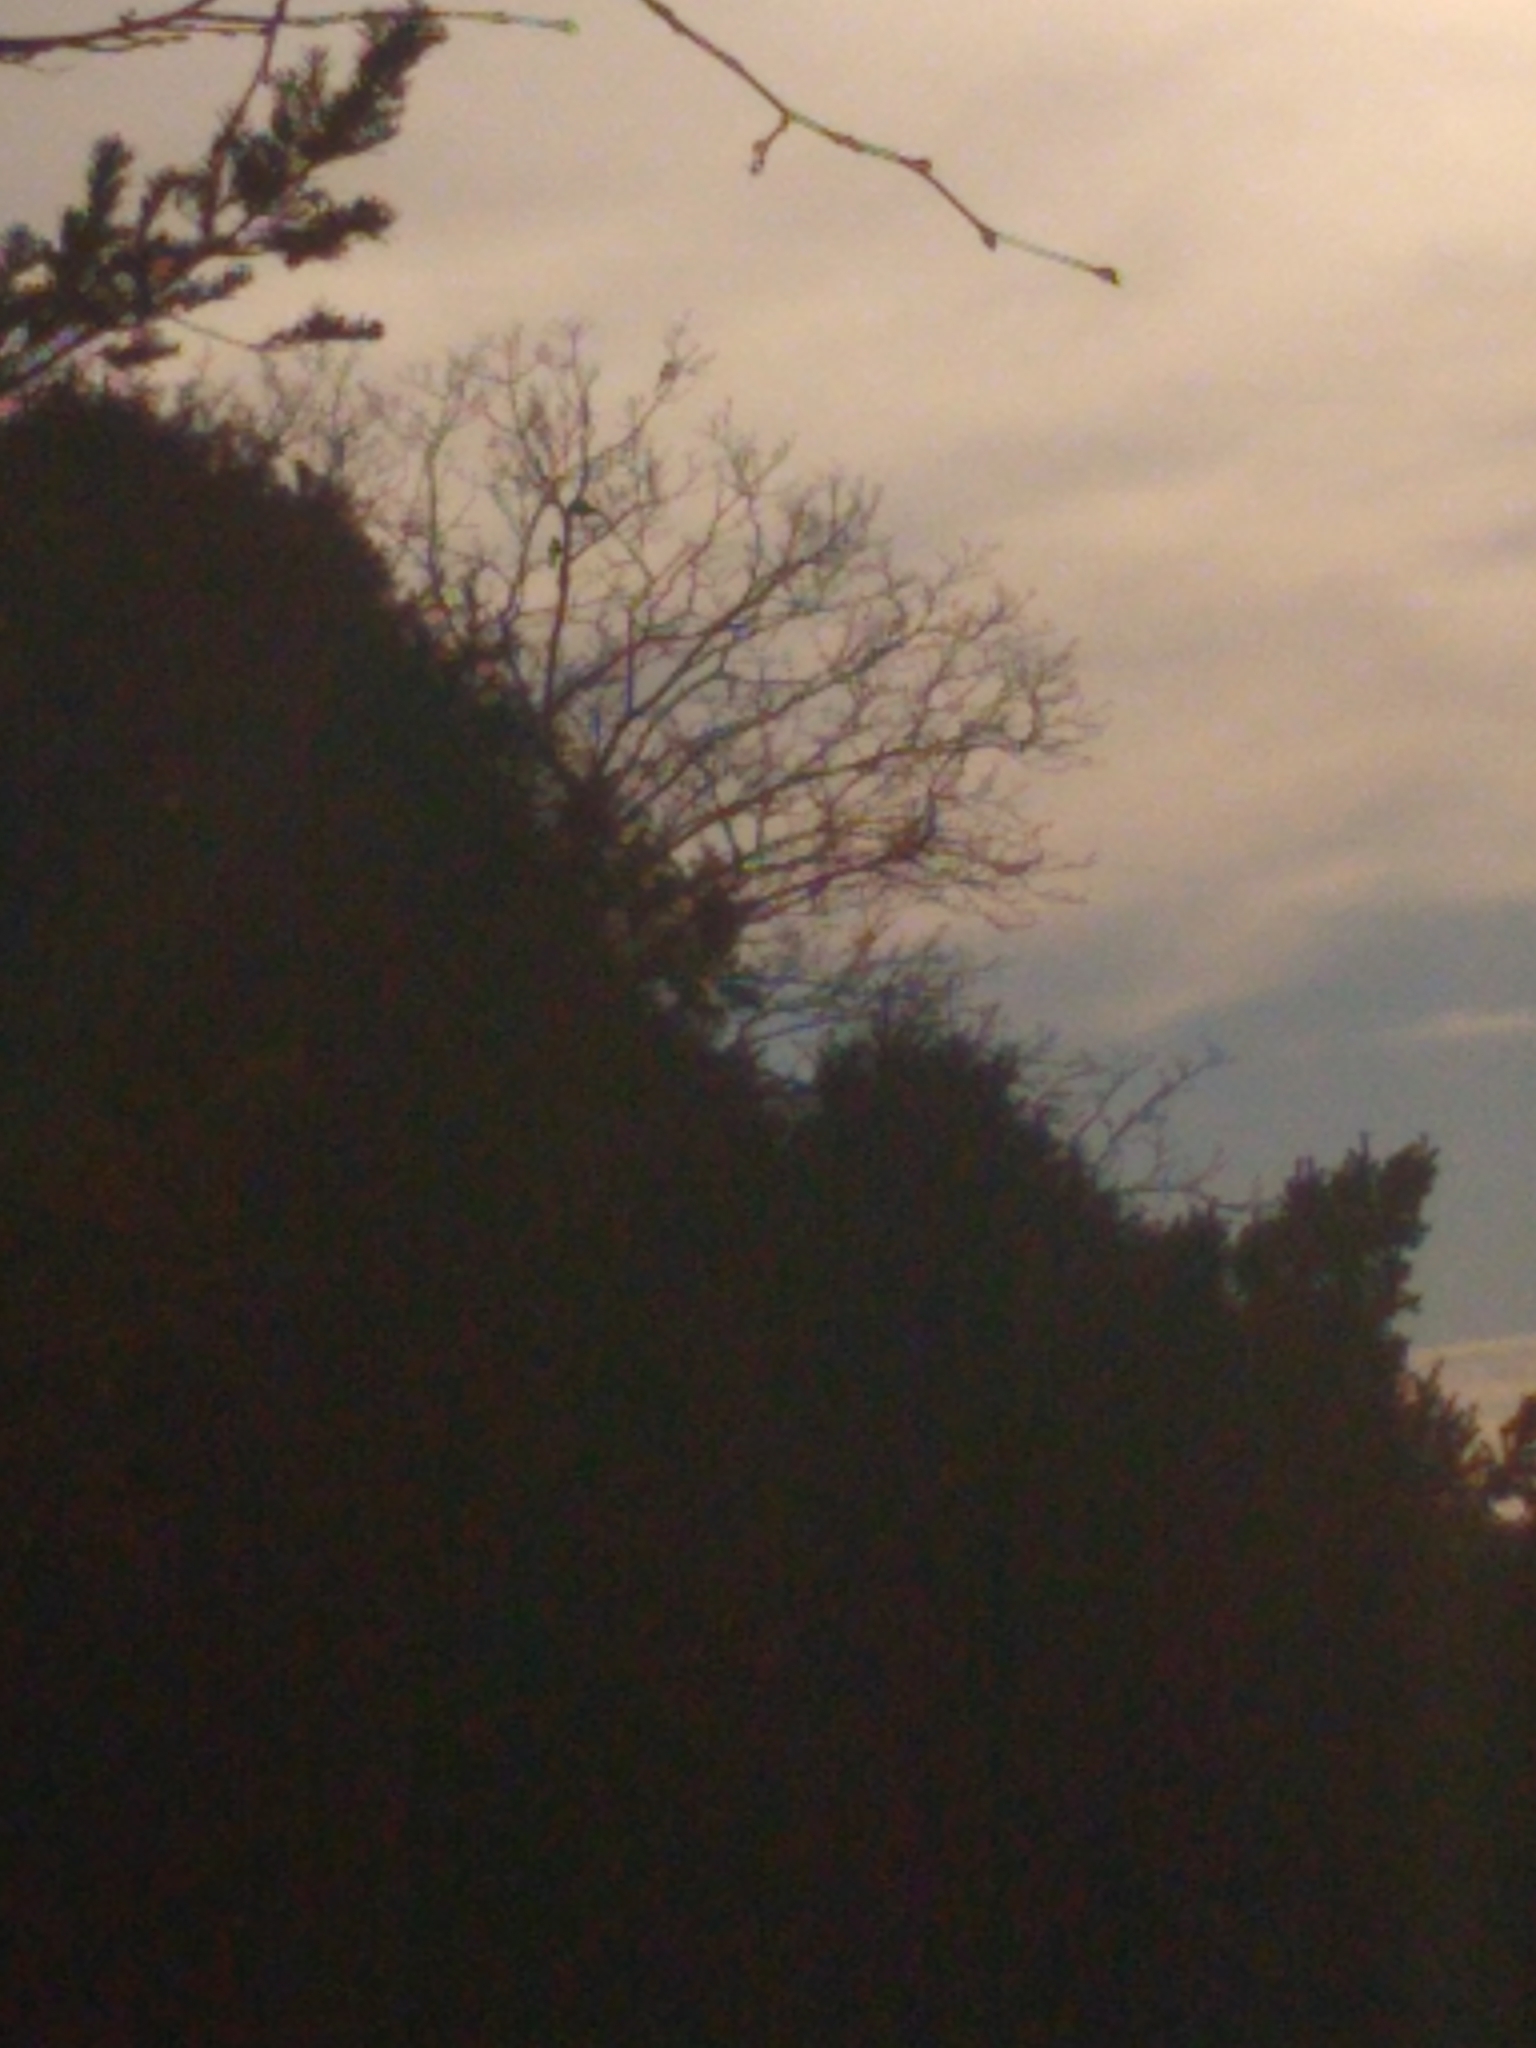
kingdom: Animalia
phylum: Chordata
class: Aves
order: Passeriformes
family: Corvidae
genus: Cyanocitta
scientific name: Cyanocitta cristata
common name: Blue jay
